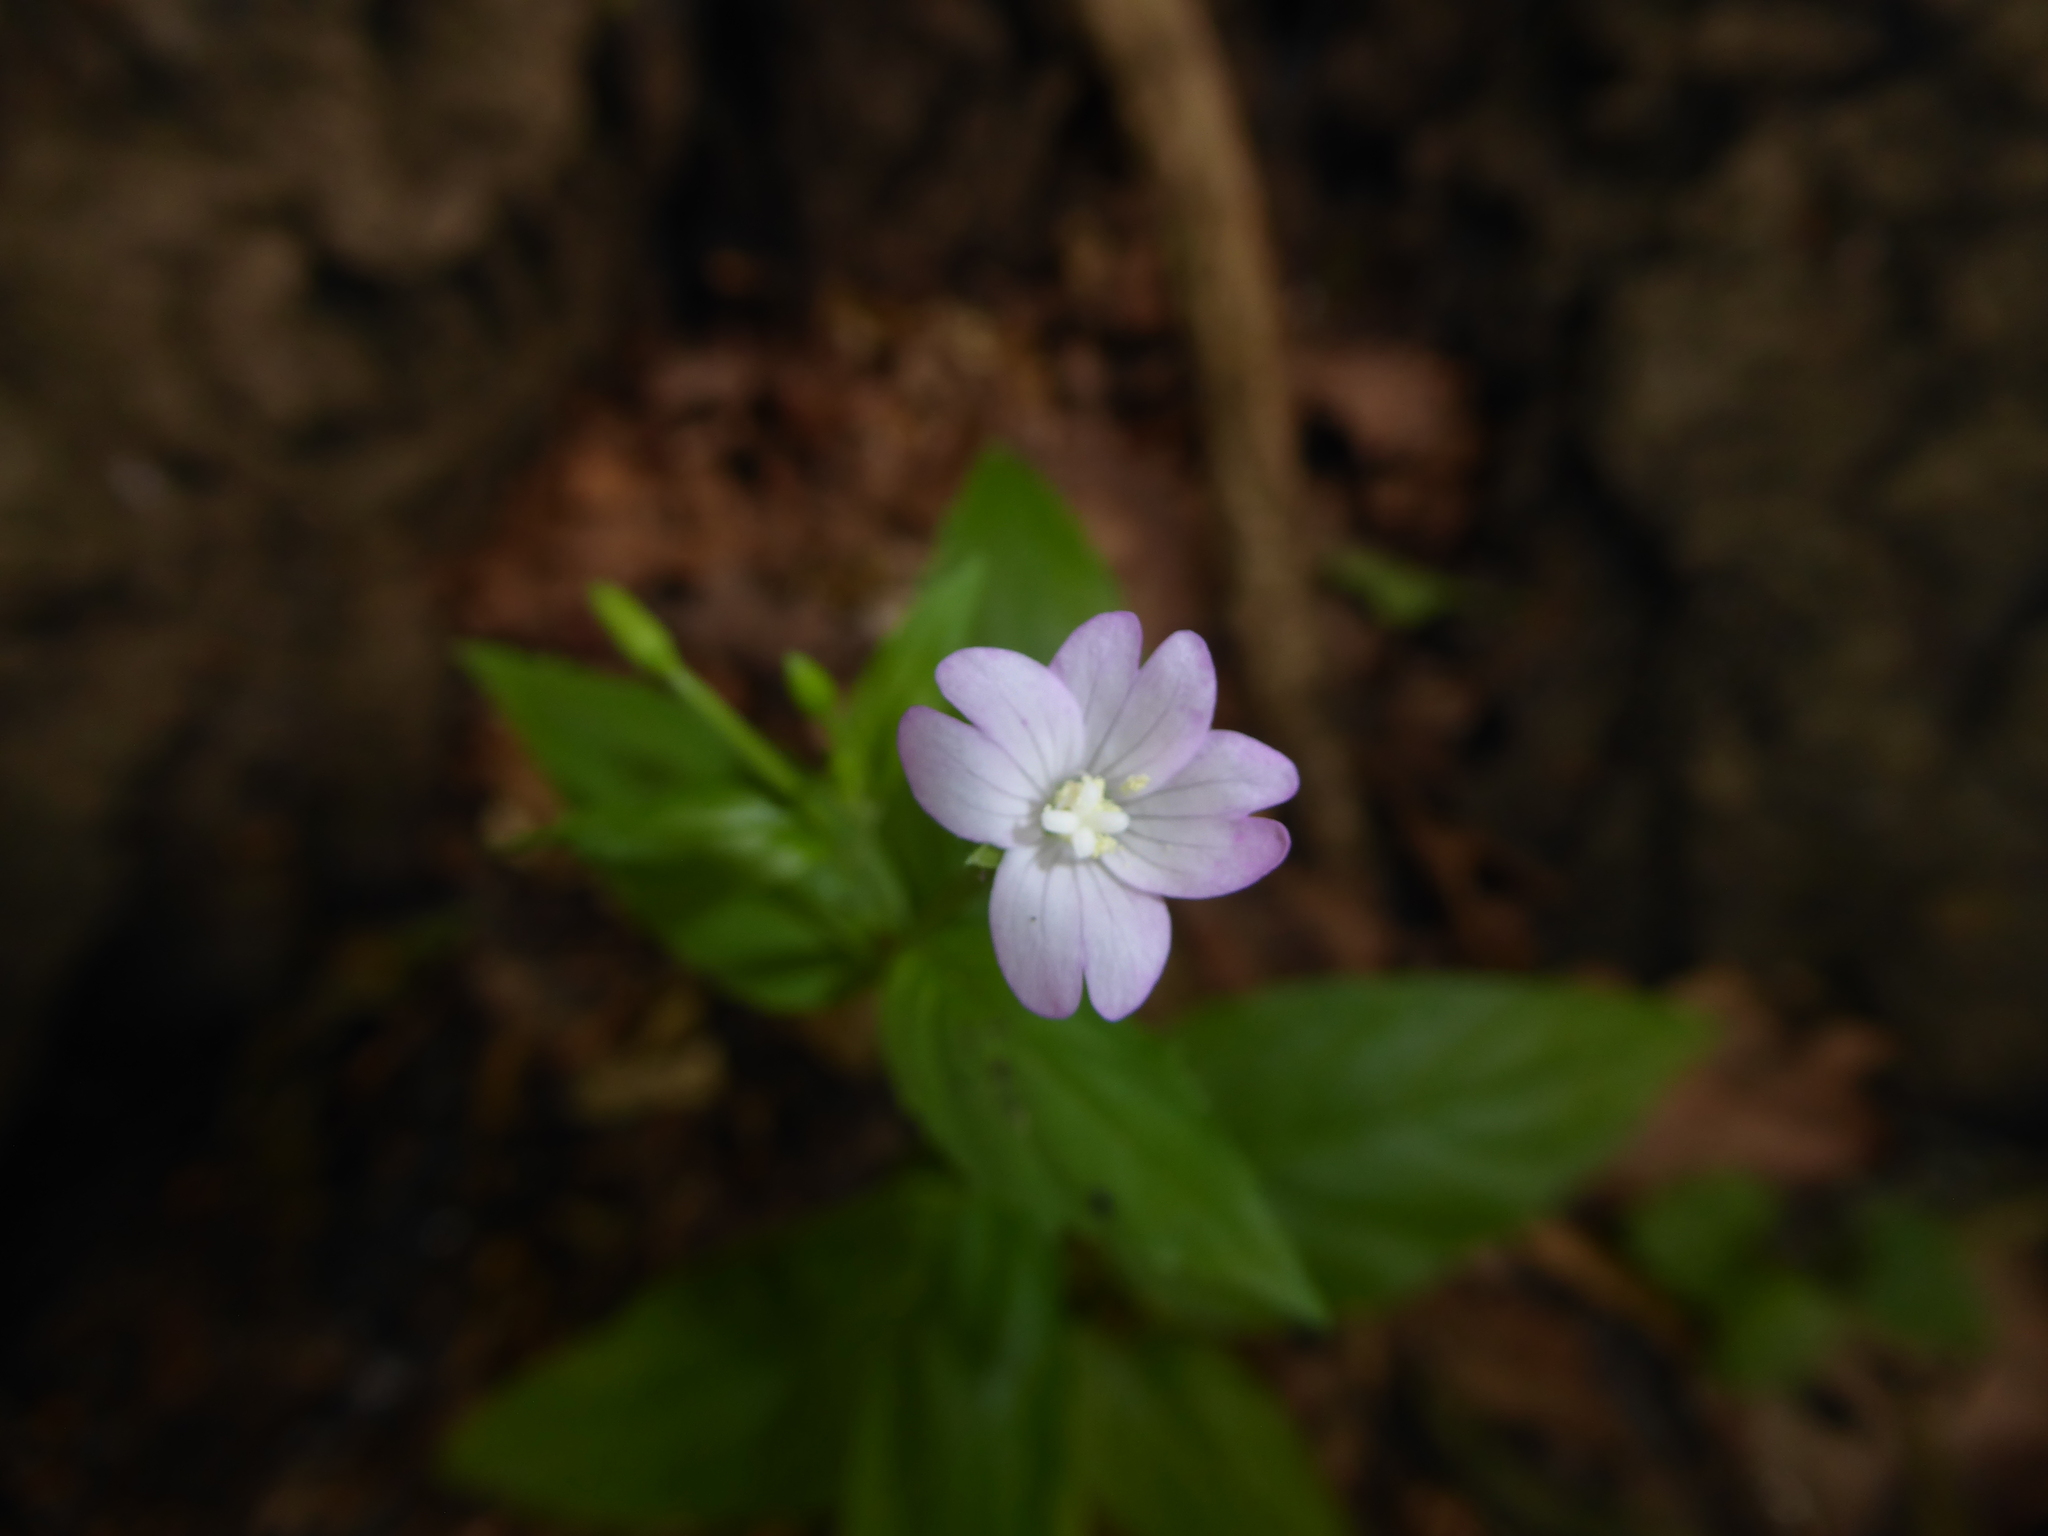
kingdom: Plantae
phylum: Tracheophyta
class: Magnoliopsida
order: Myrtales
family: Onagraceae
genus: Epilobium
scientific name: Epilobium montanum
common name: Broad-leaved willowherb
